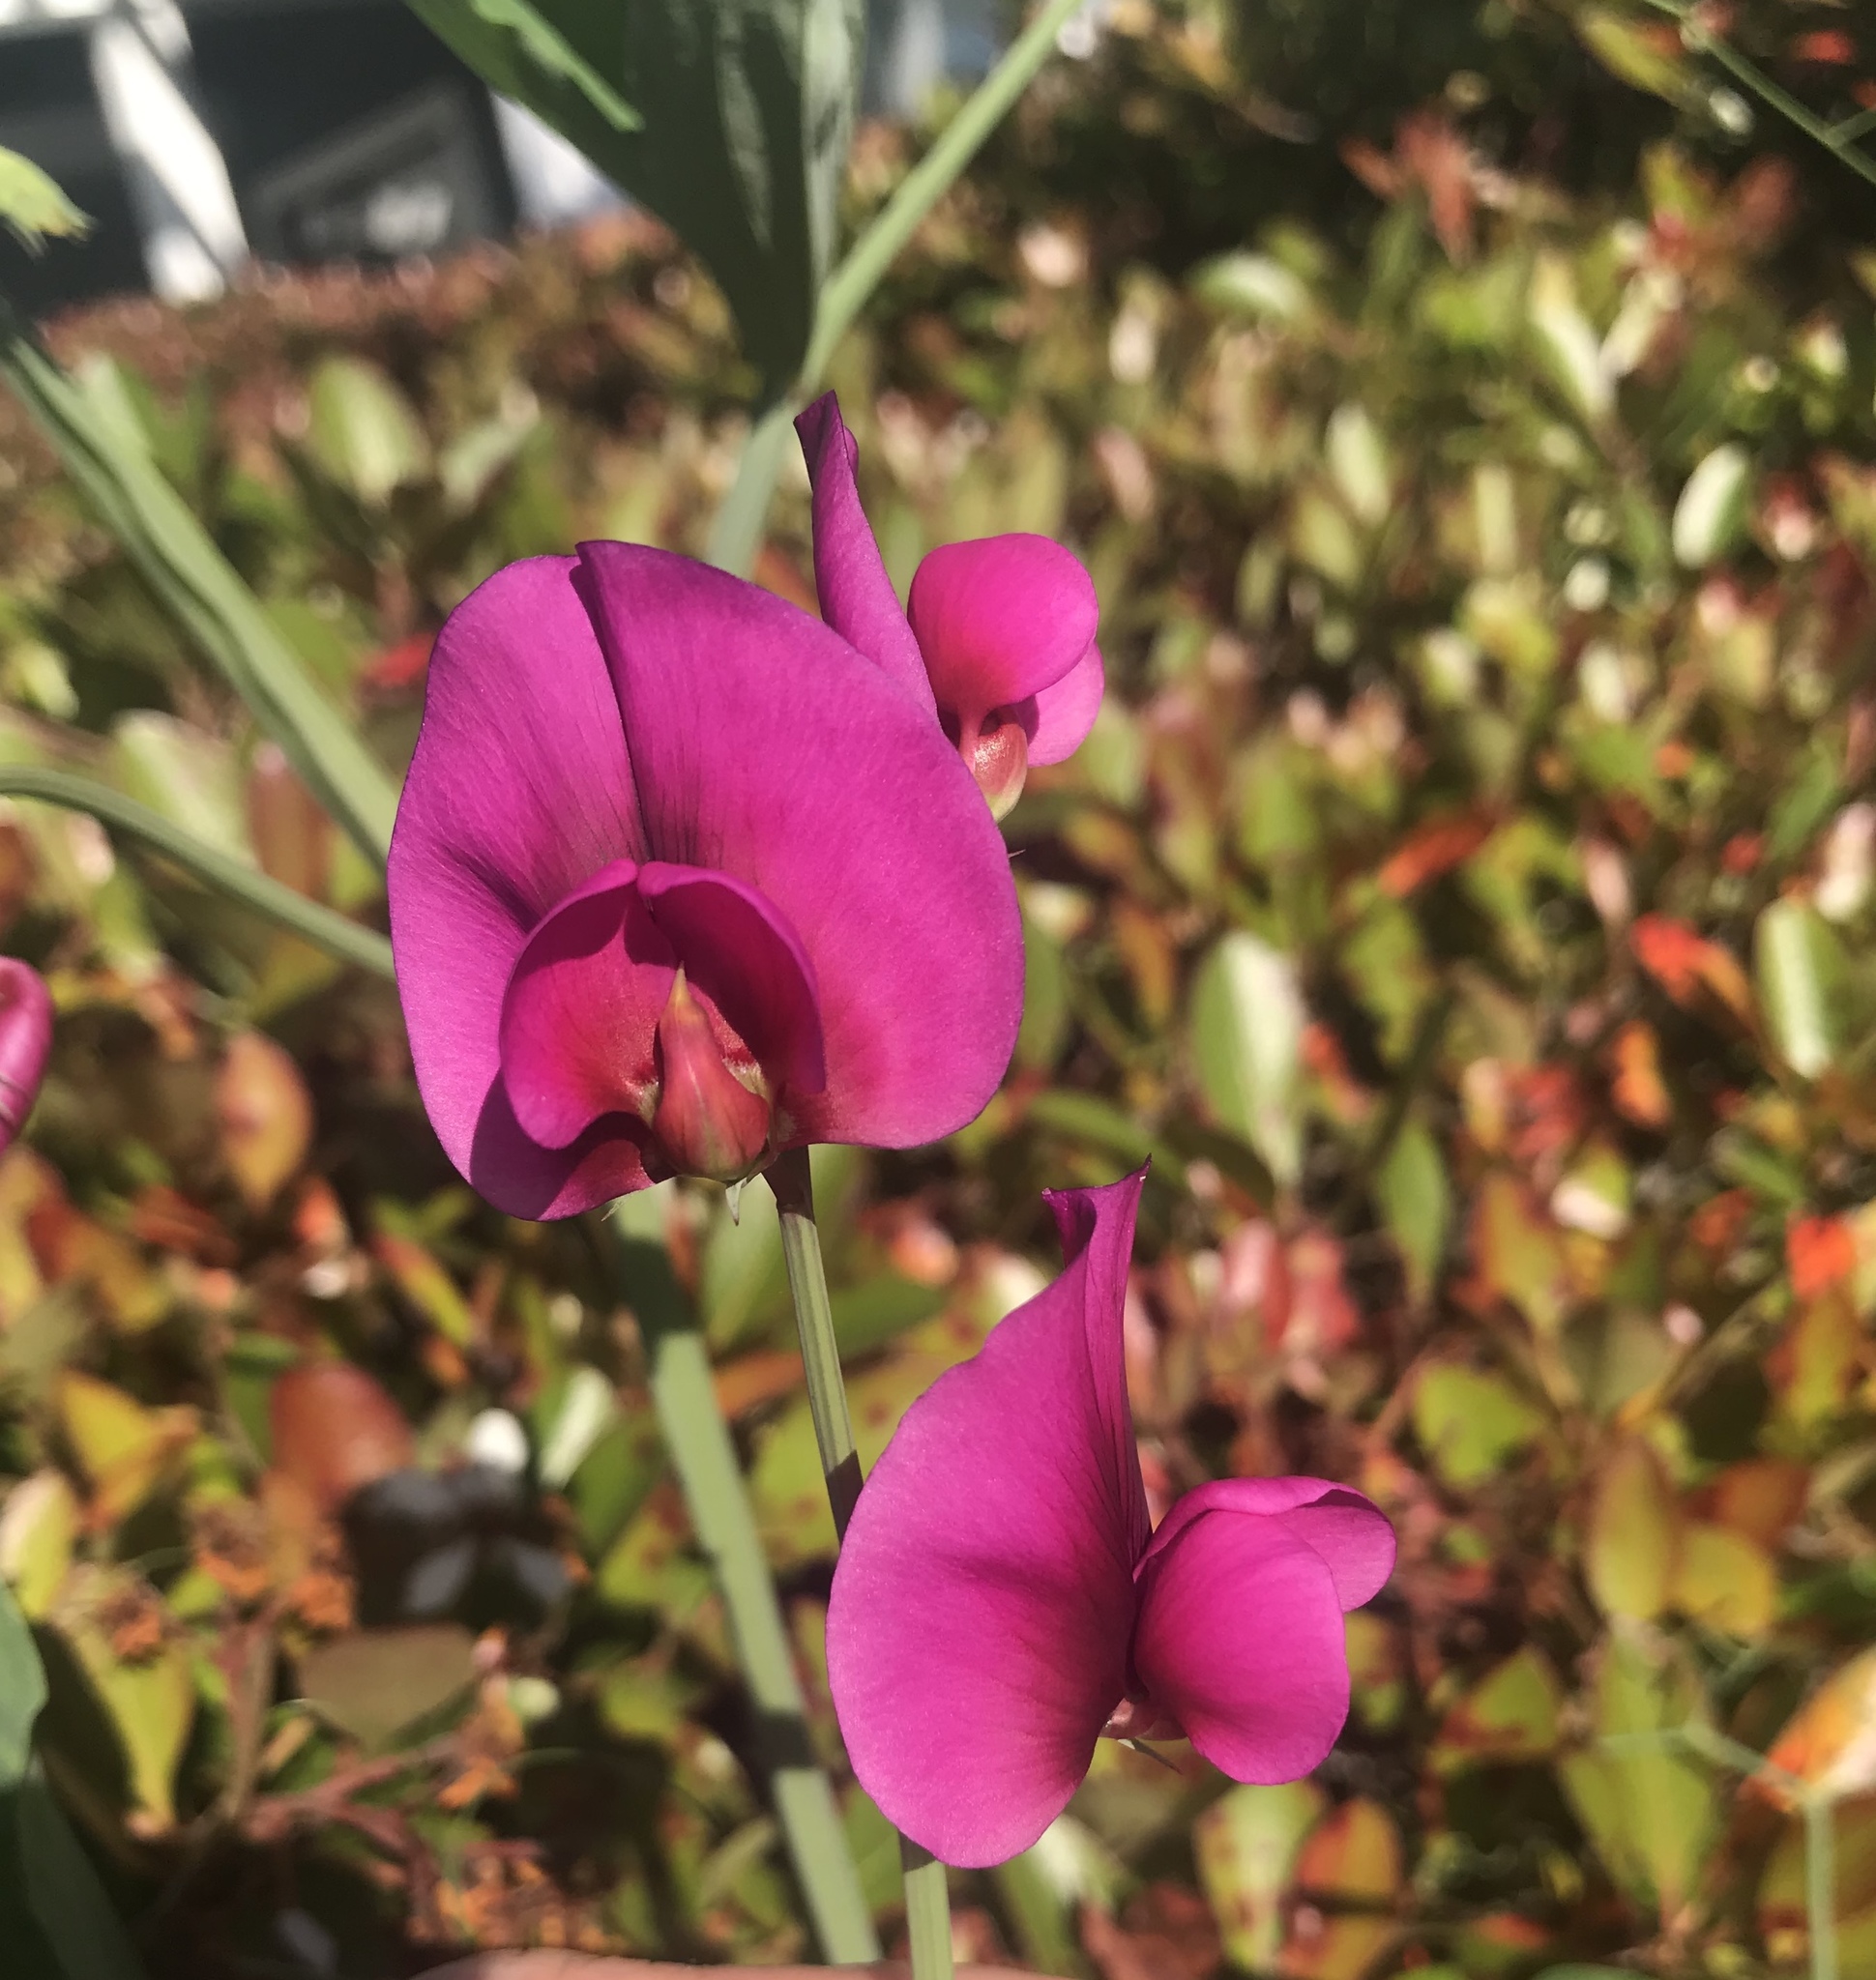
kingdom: Plantae
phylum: Tracheophyta
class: Magnoliopsida
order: Fabales
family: Fabaceae
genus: Lathyrus
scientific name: Lathyrus tingitanus
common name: Tangier pea
